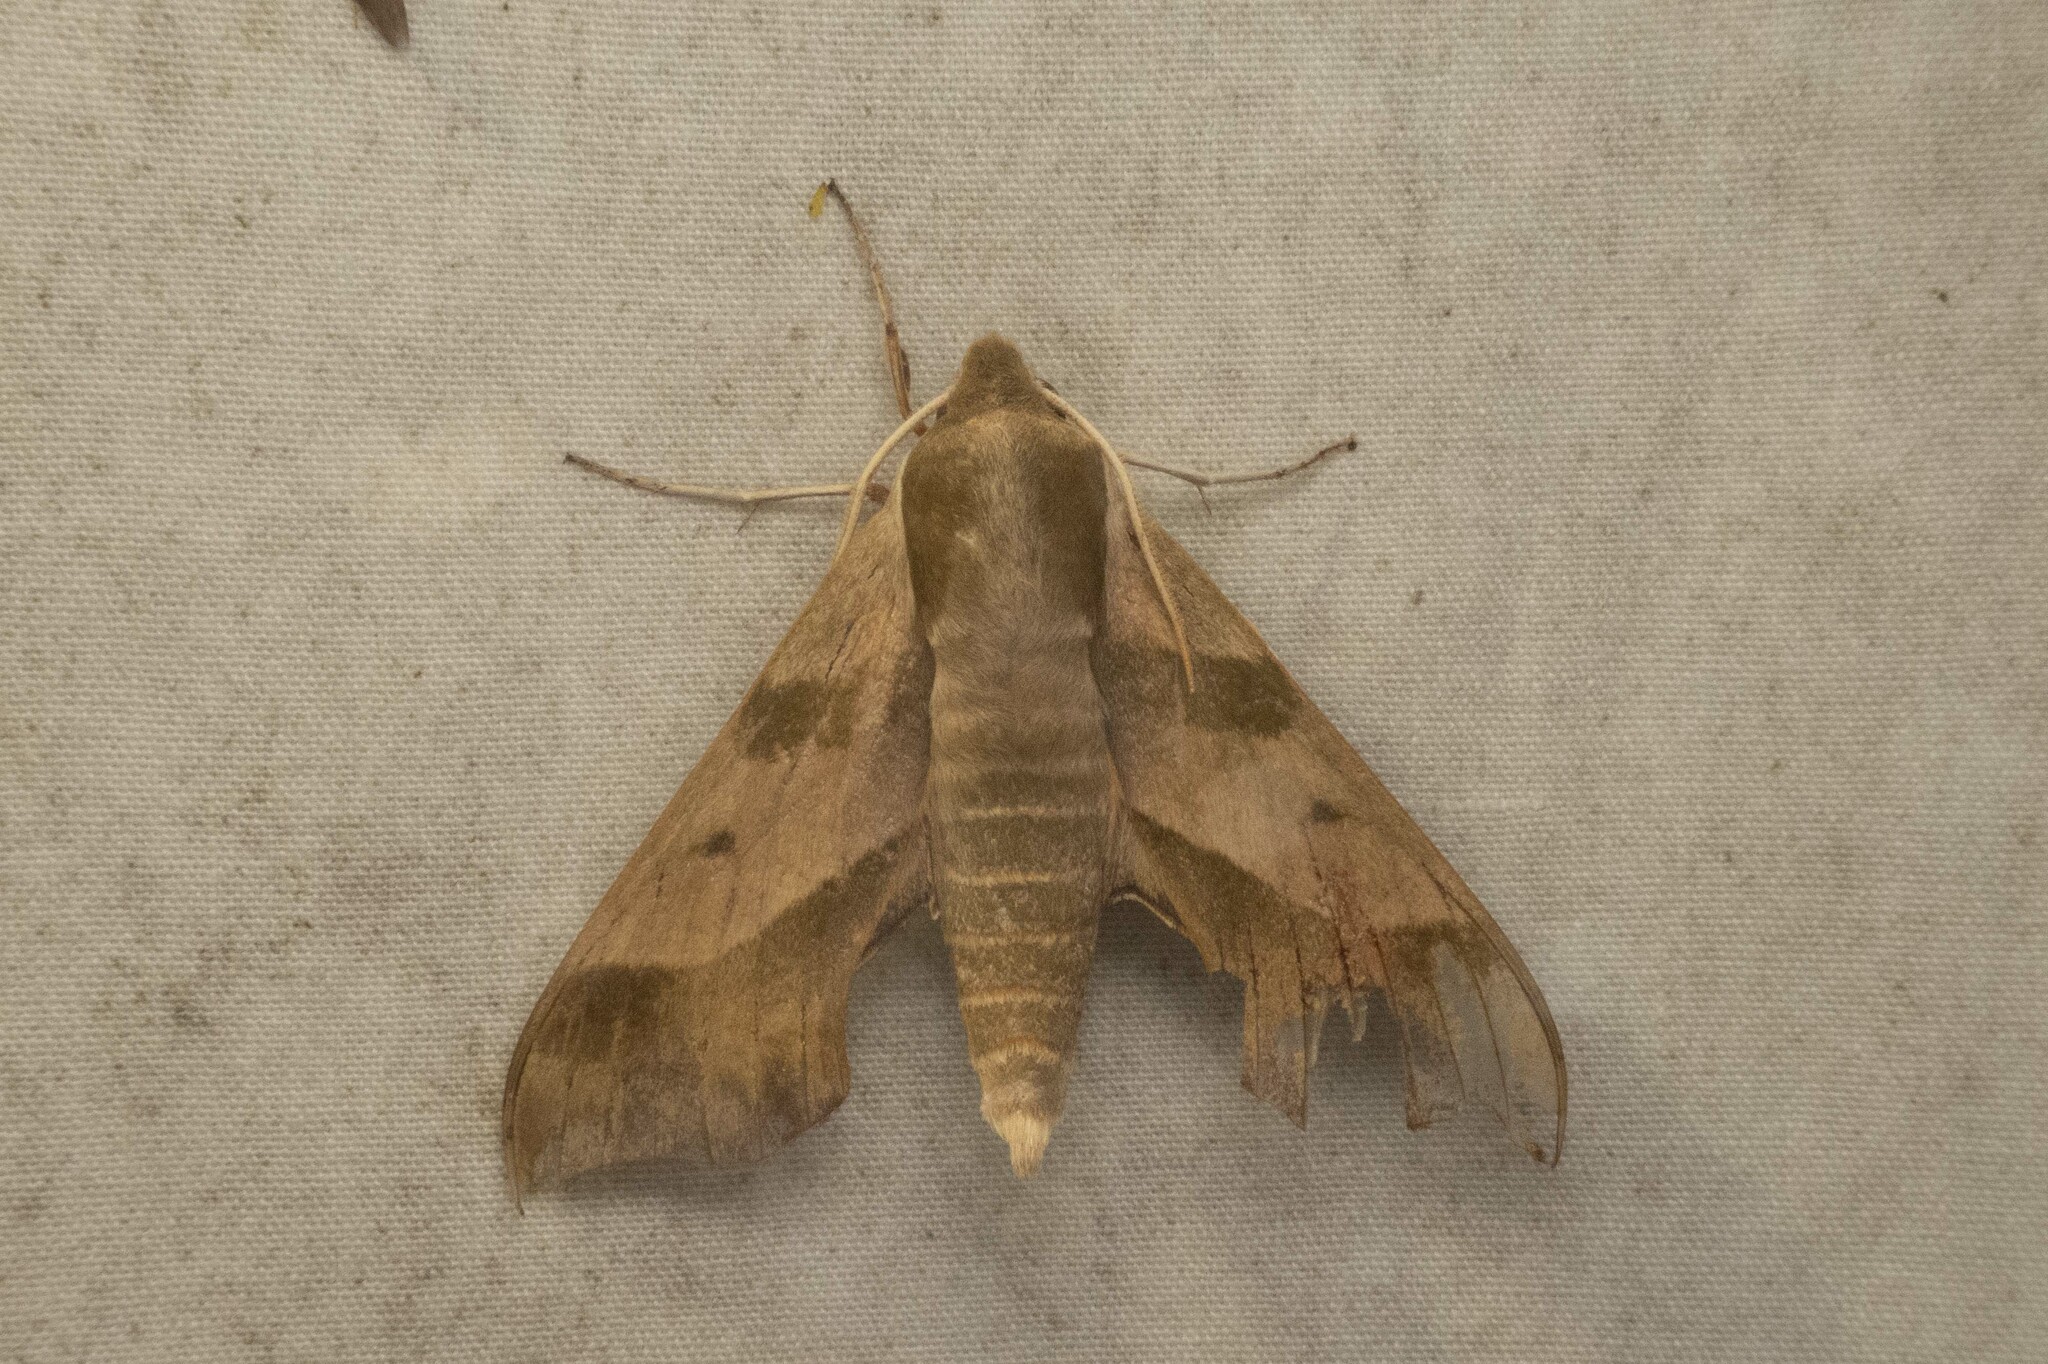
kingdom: Animalia
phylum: Arthropoda
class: Insecta
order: Lepidoptera
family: Sphingidae
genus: Darapsa
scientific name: Darapsa myron
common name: Hog sphinx
